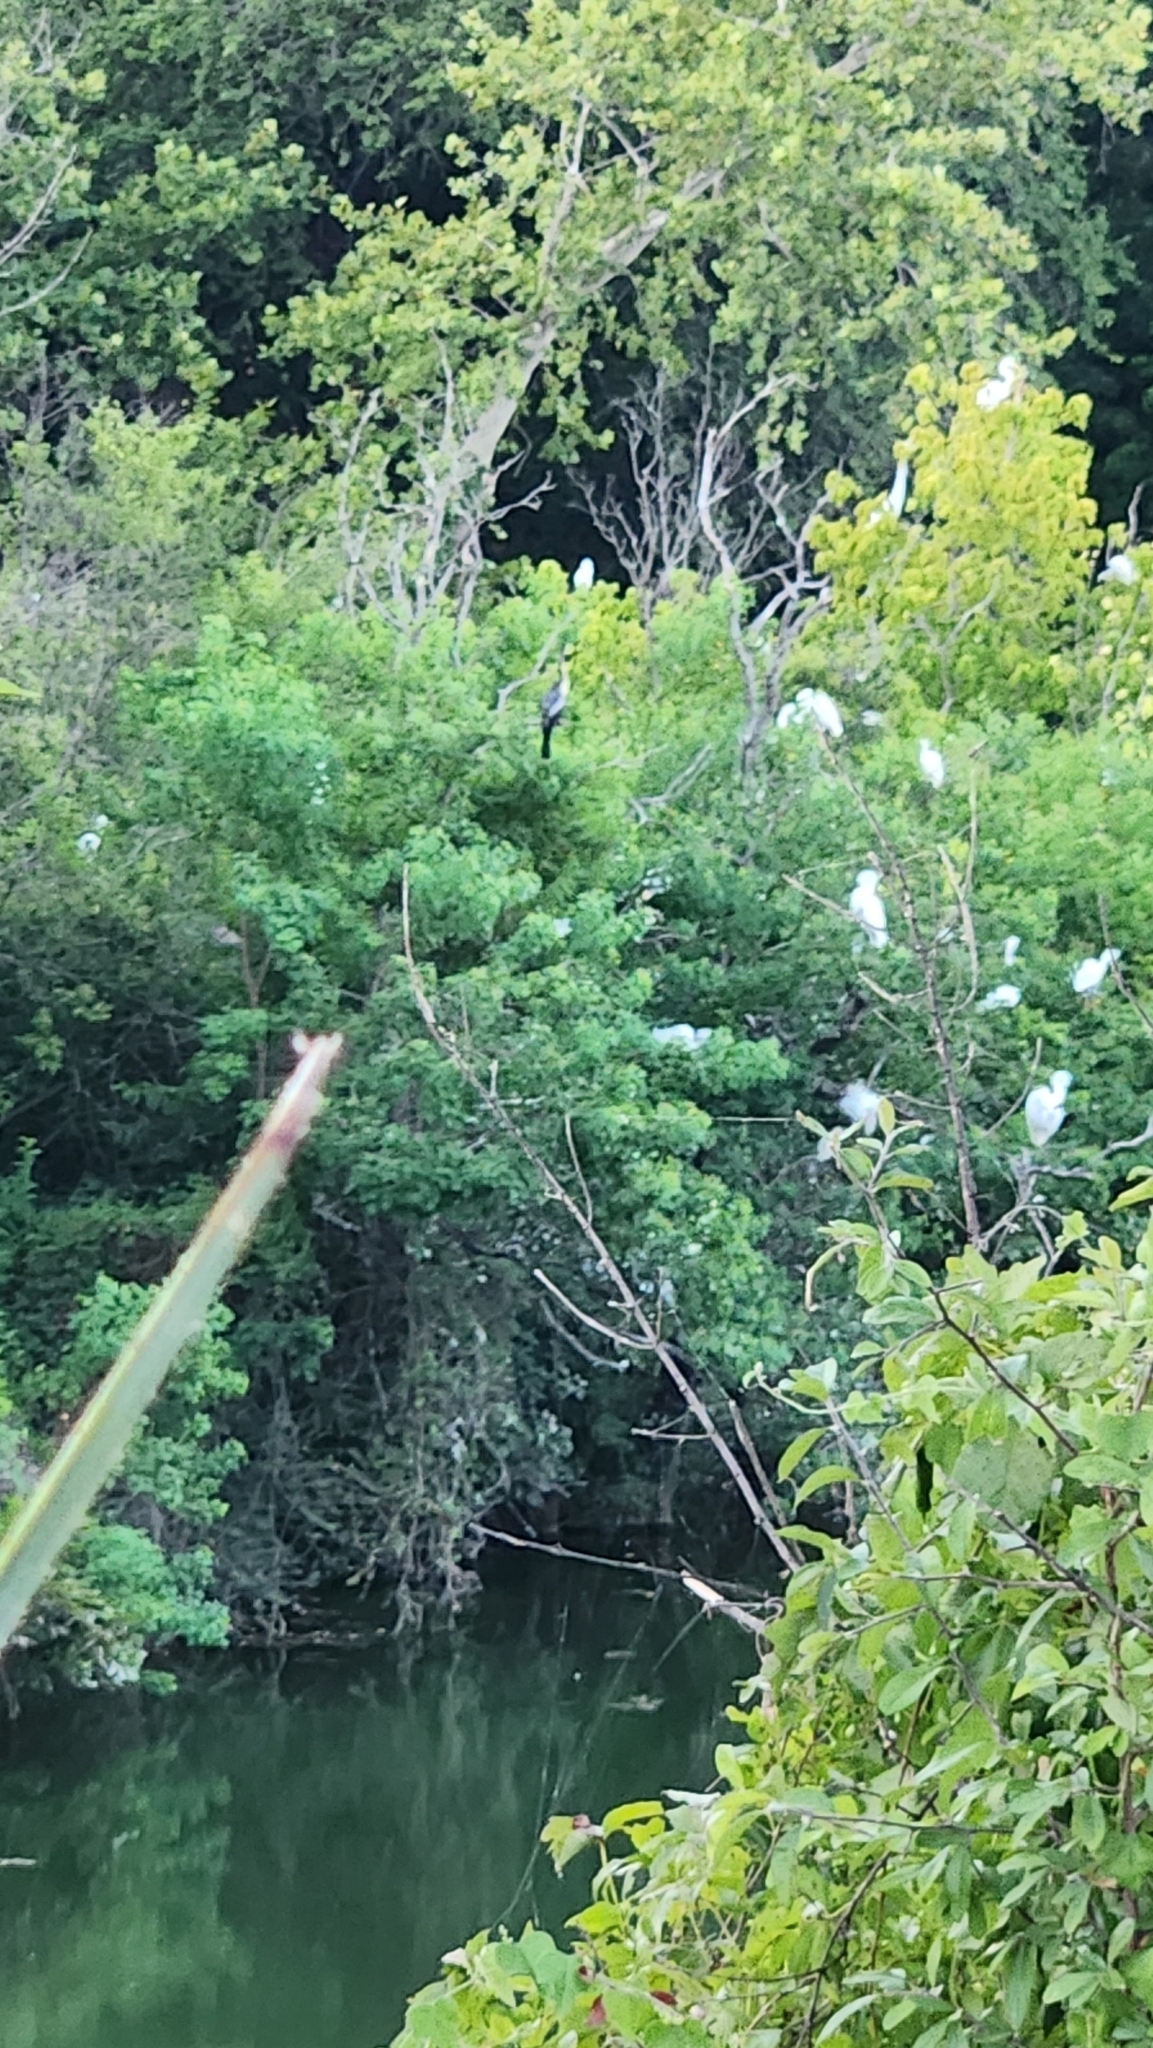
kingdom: Animalia
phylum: Chordata
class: Aves
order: Suliformes
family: Anhingidae
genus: Anhinga
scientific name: Anhinga anhinga
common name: Anhinga
